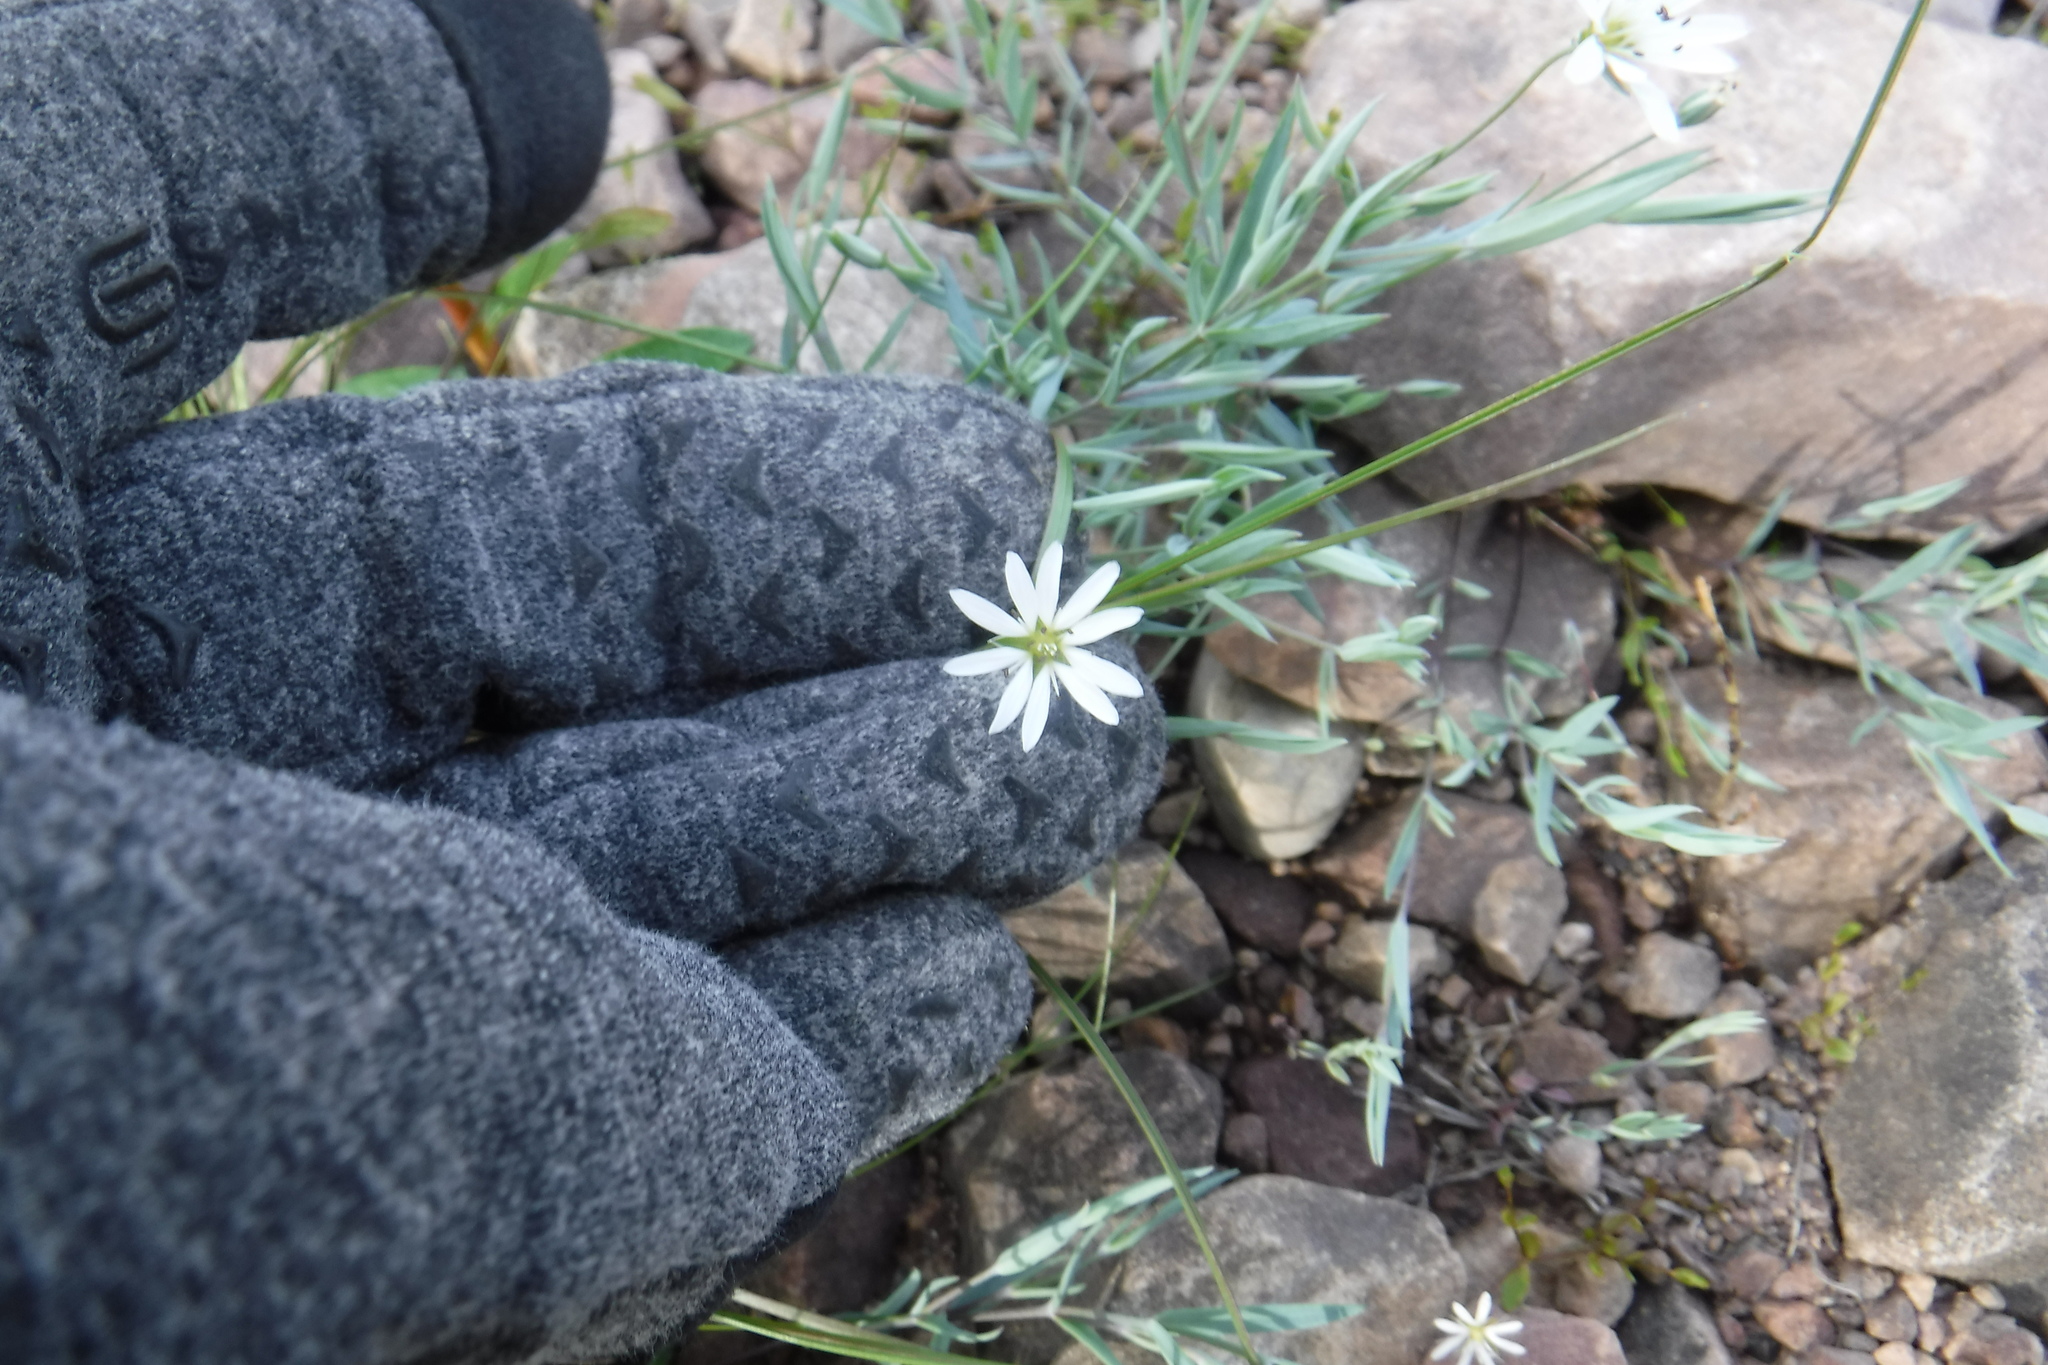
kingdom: Plantae
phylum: Tracheophyta
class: Magnoliopsida
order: Caryophyllales
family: Caryophyllaceae
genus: Stellaria
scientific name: Stellaria longipes
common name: Goldie's starwort
